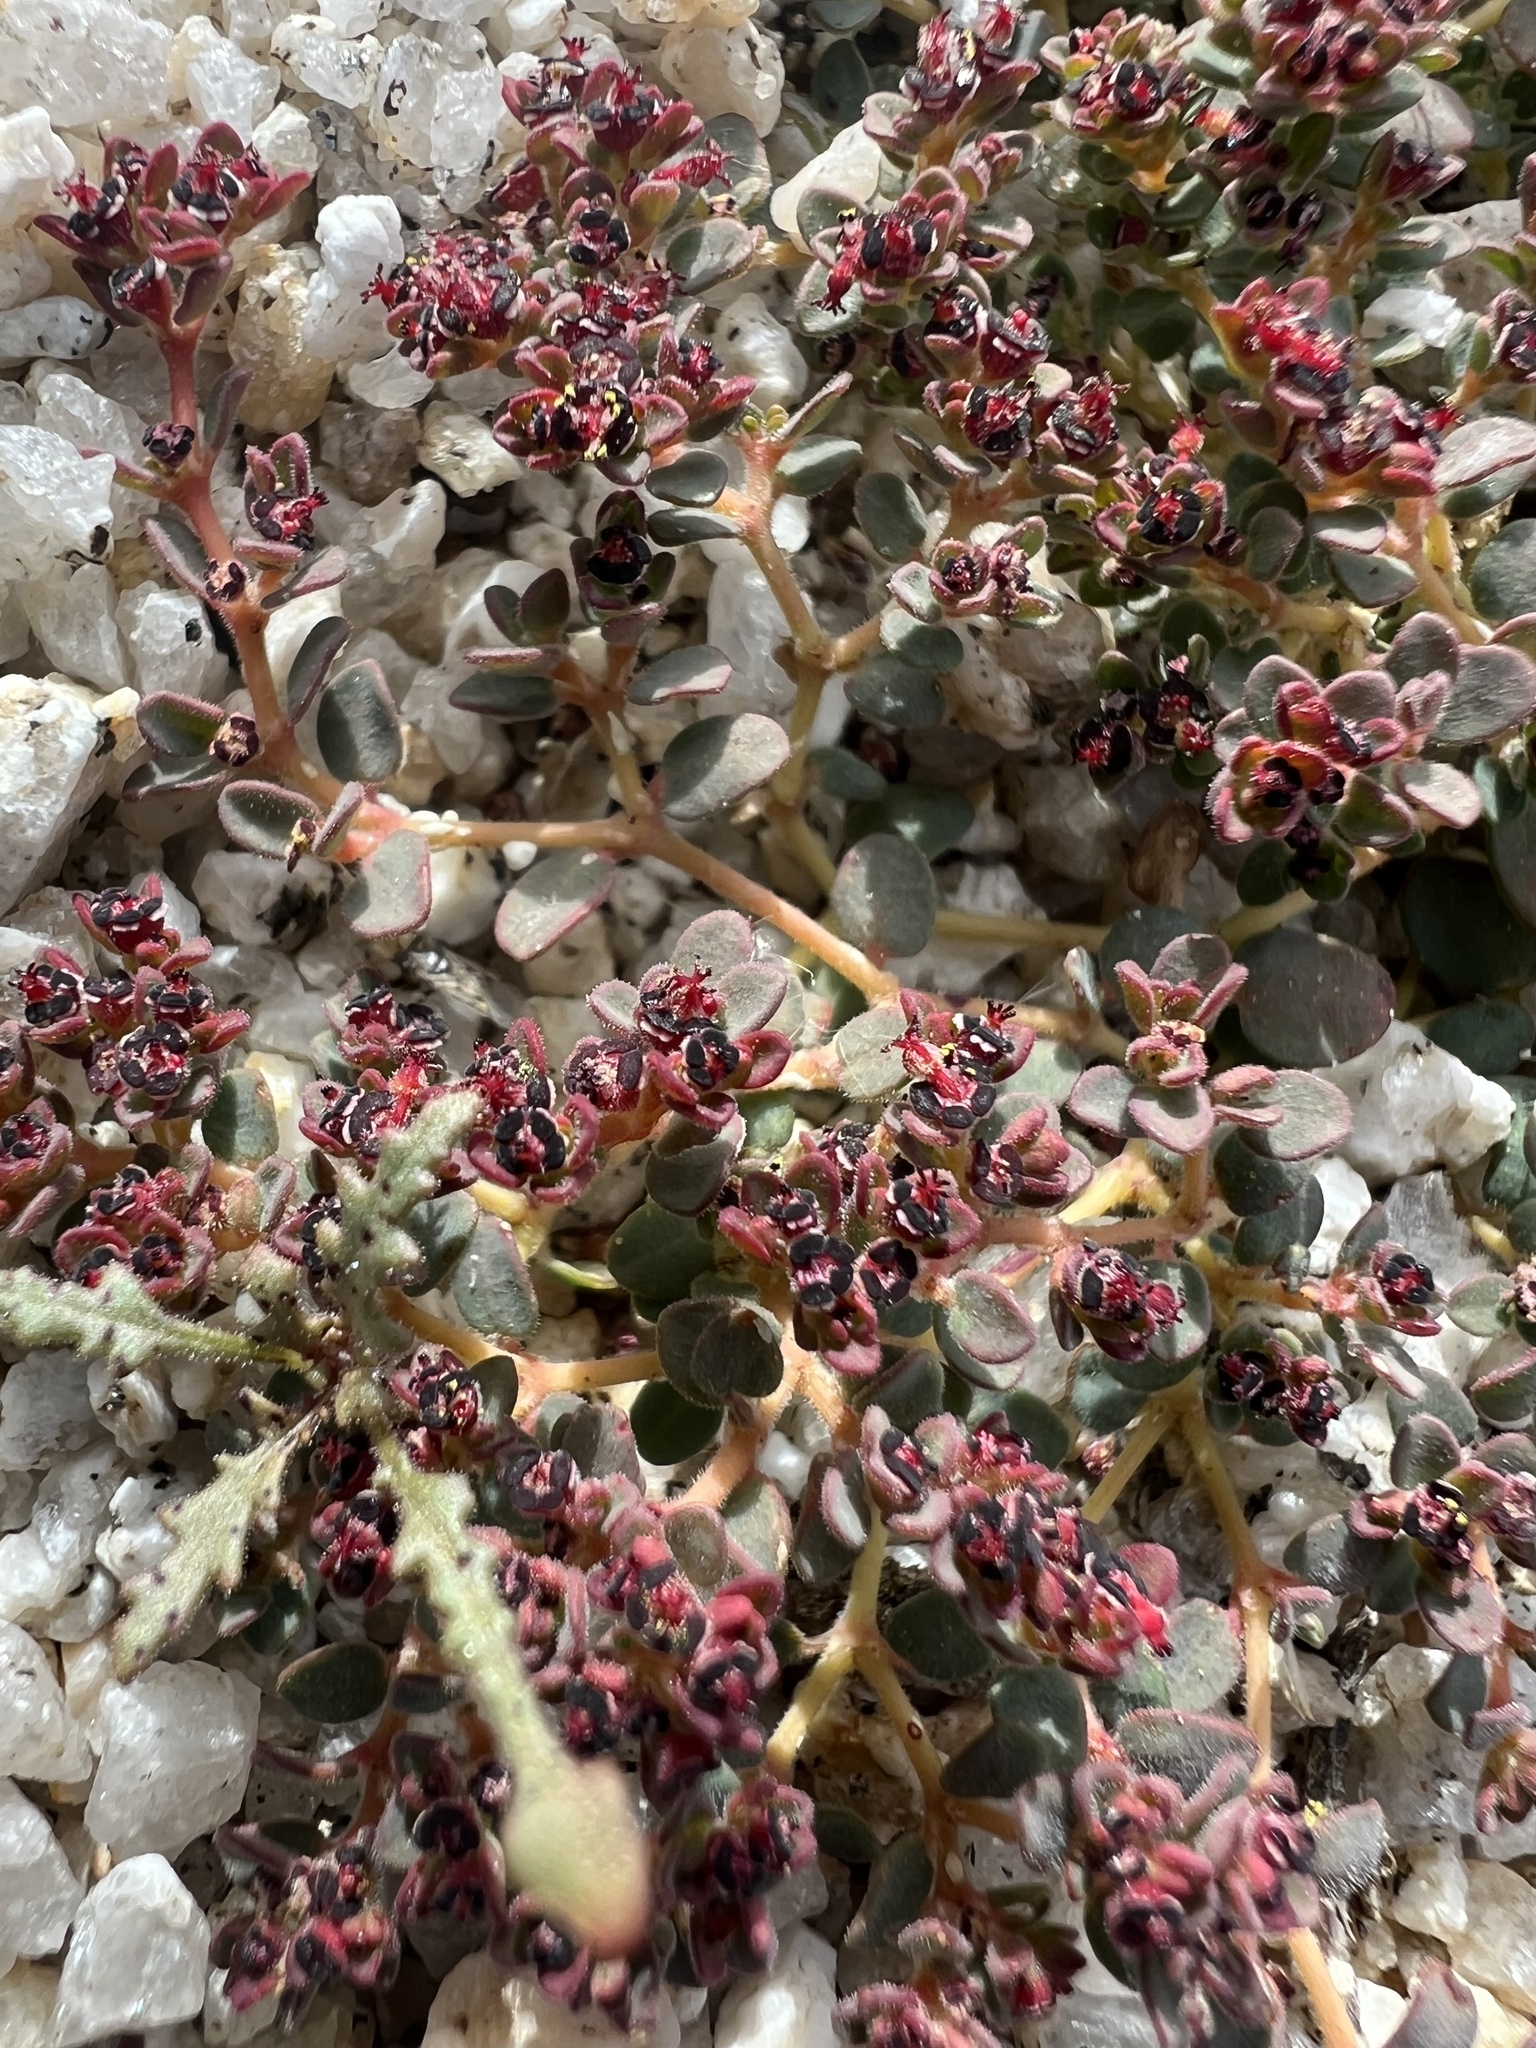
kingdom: Plantae
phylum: Tracheophyta
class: Magnoliopsida
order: Malpighiales
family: Euphorbiaceae
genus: Euphorbia
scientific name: Euphorbia polycarpa
